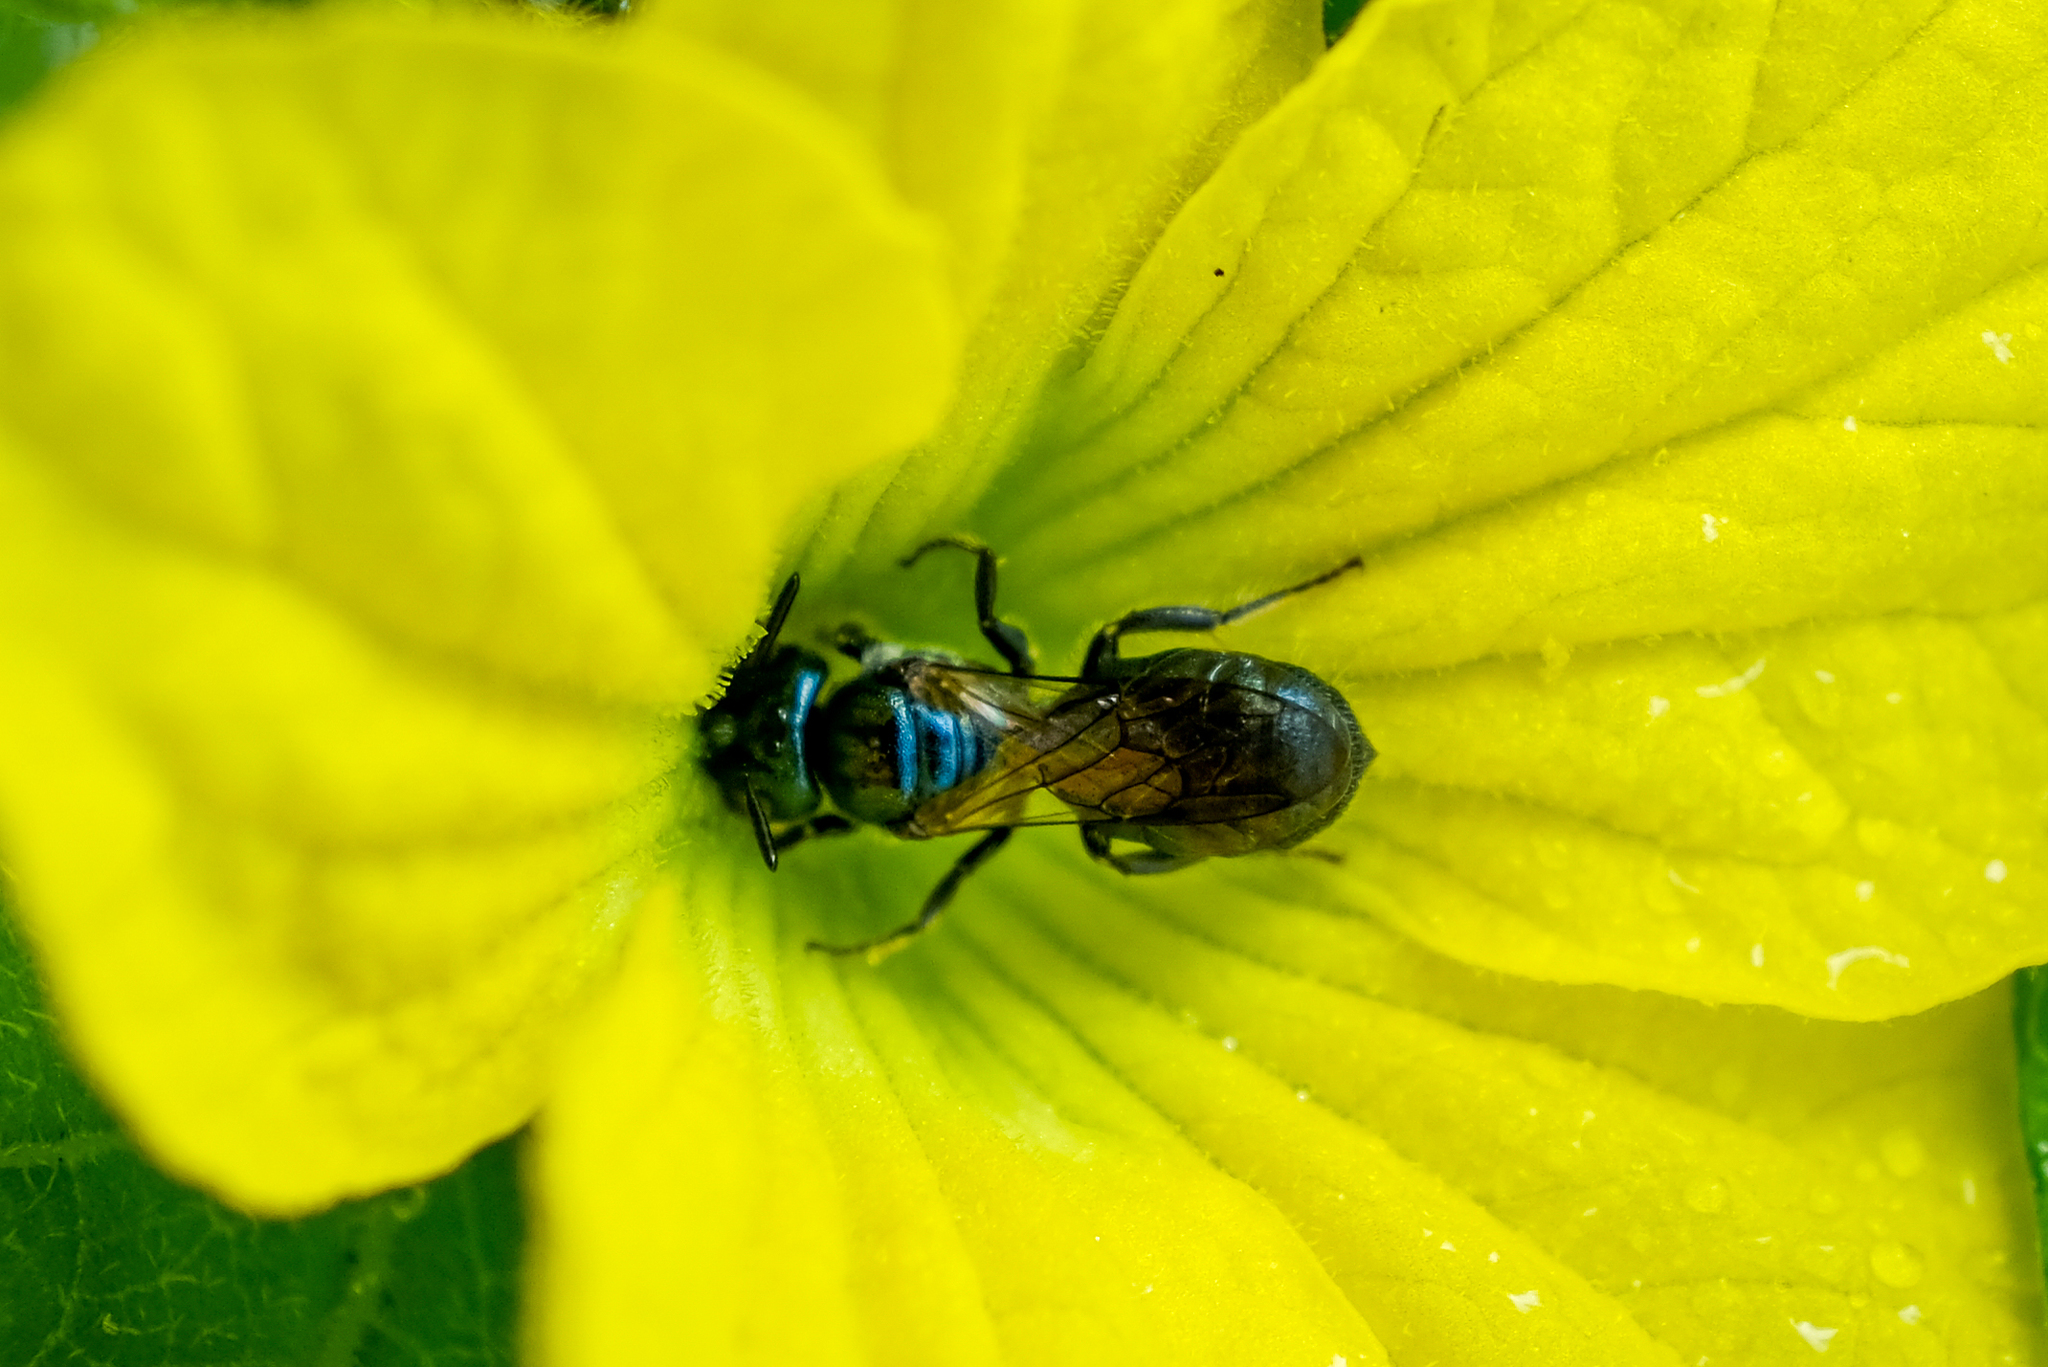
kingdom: Animalia
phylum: Arthropoda
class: Insecta
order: Hymenoptera
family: Apidae
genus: Ceratina
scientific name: Ceratina
